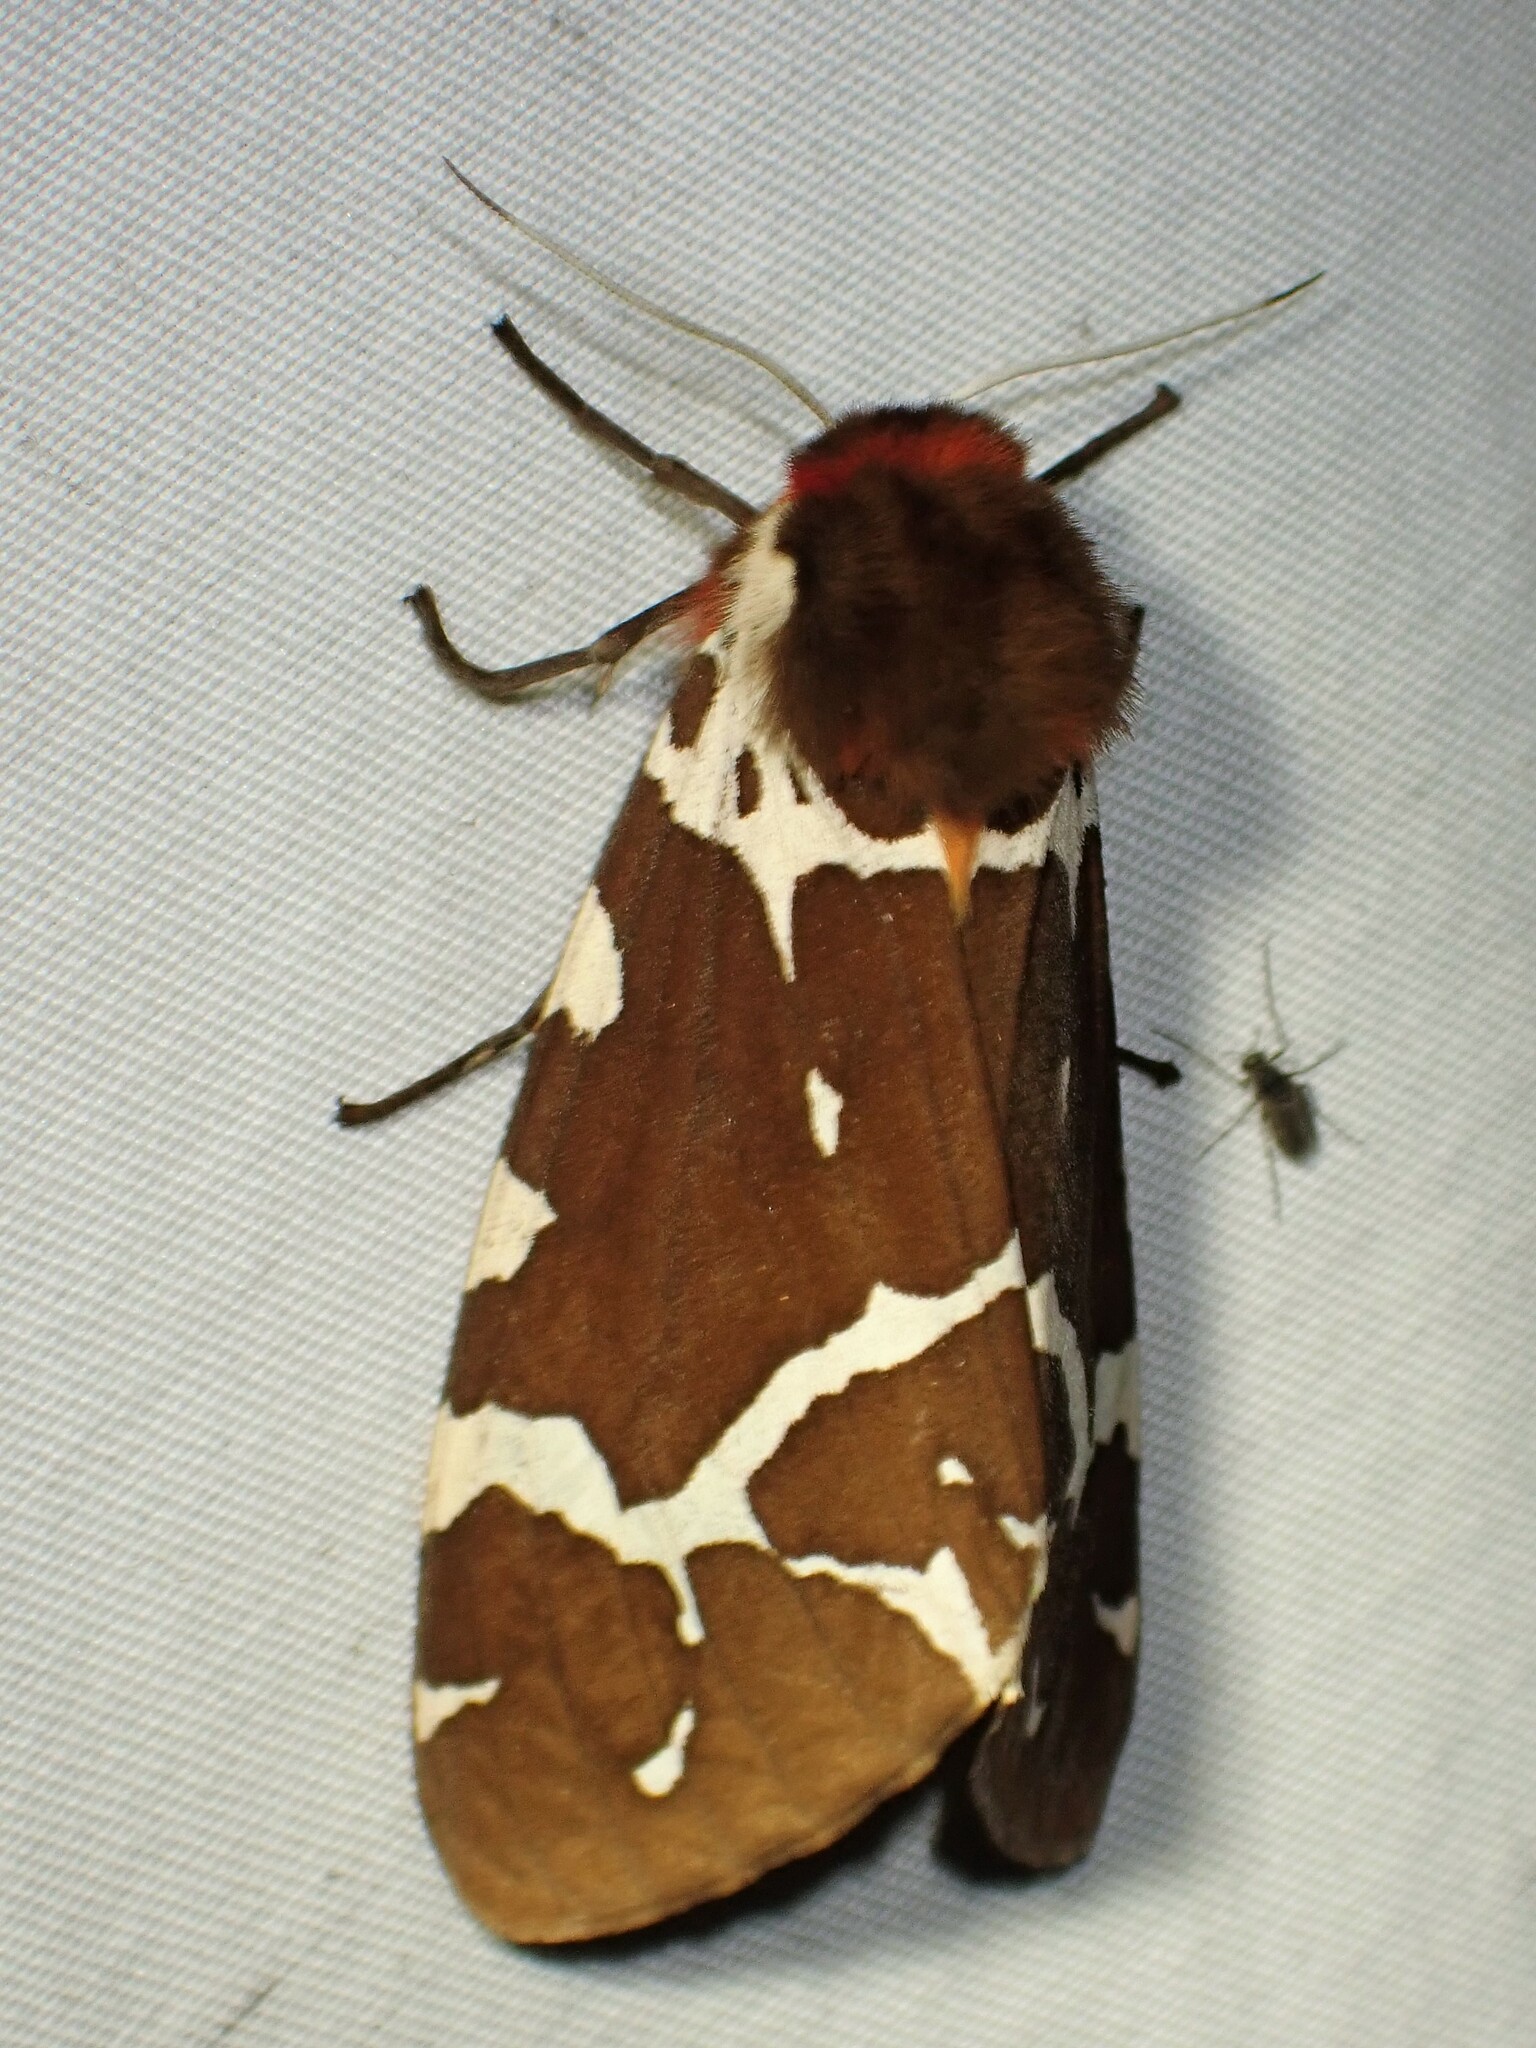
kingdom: Animalia
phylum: Arthropoda
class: Insecta
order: Lepidoptera
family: Erebidae
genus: Arctia
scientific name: Arctia caja
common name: Garden tiger
